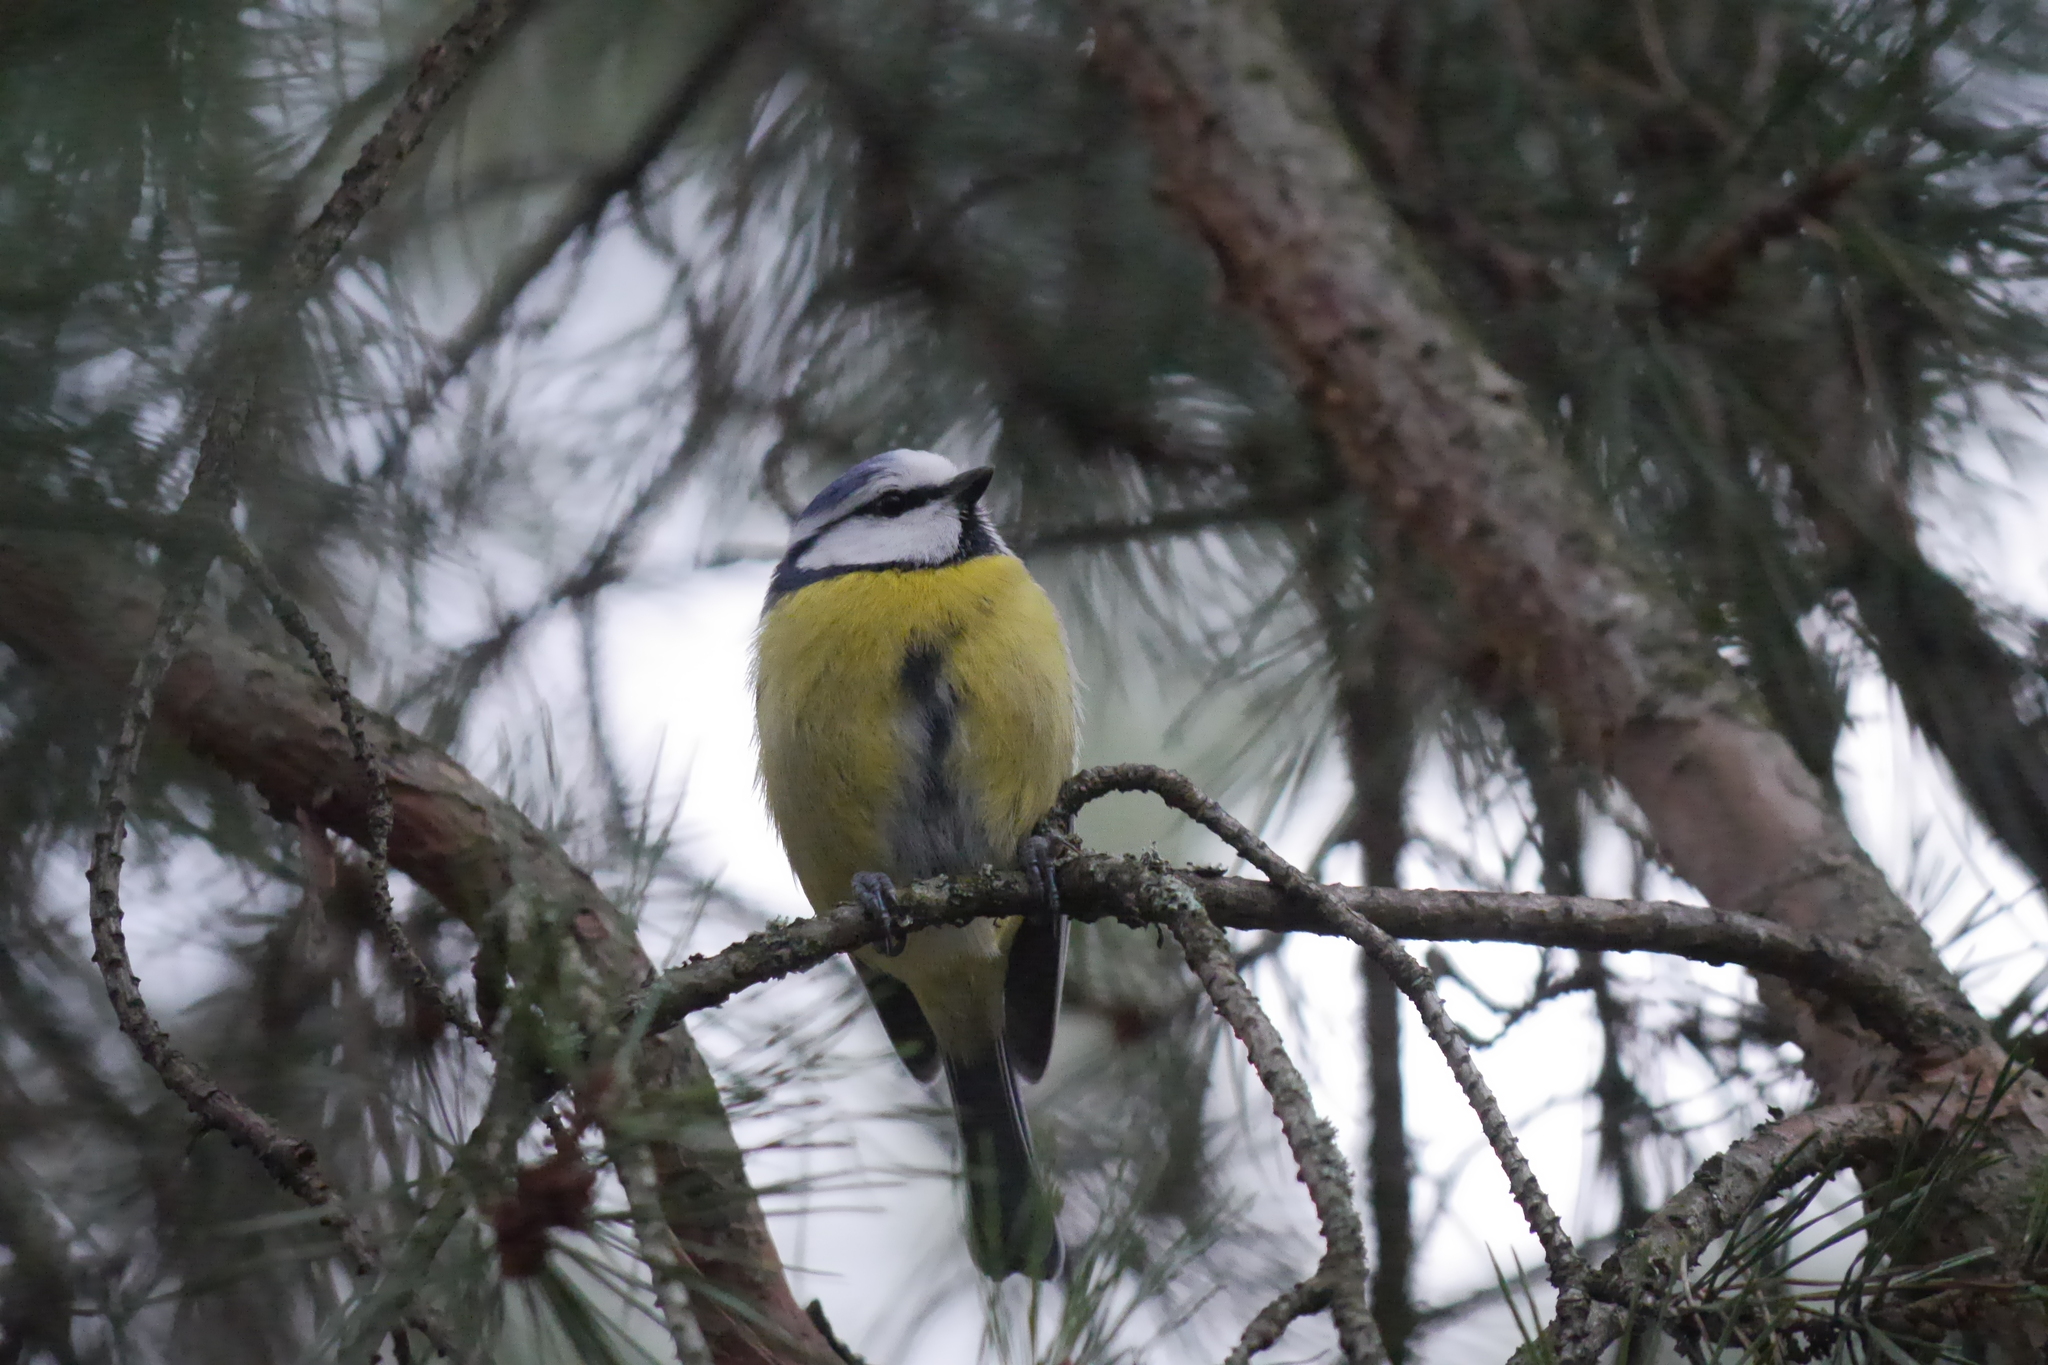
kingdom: Animalia
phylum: Chordata
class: Aves
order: Passeriformes
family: Paridae
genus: Cyanistes
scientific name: Cyanistes caeruleus
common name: Eurasian blue tit
